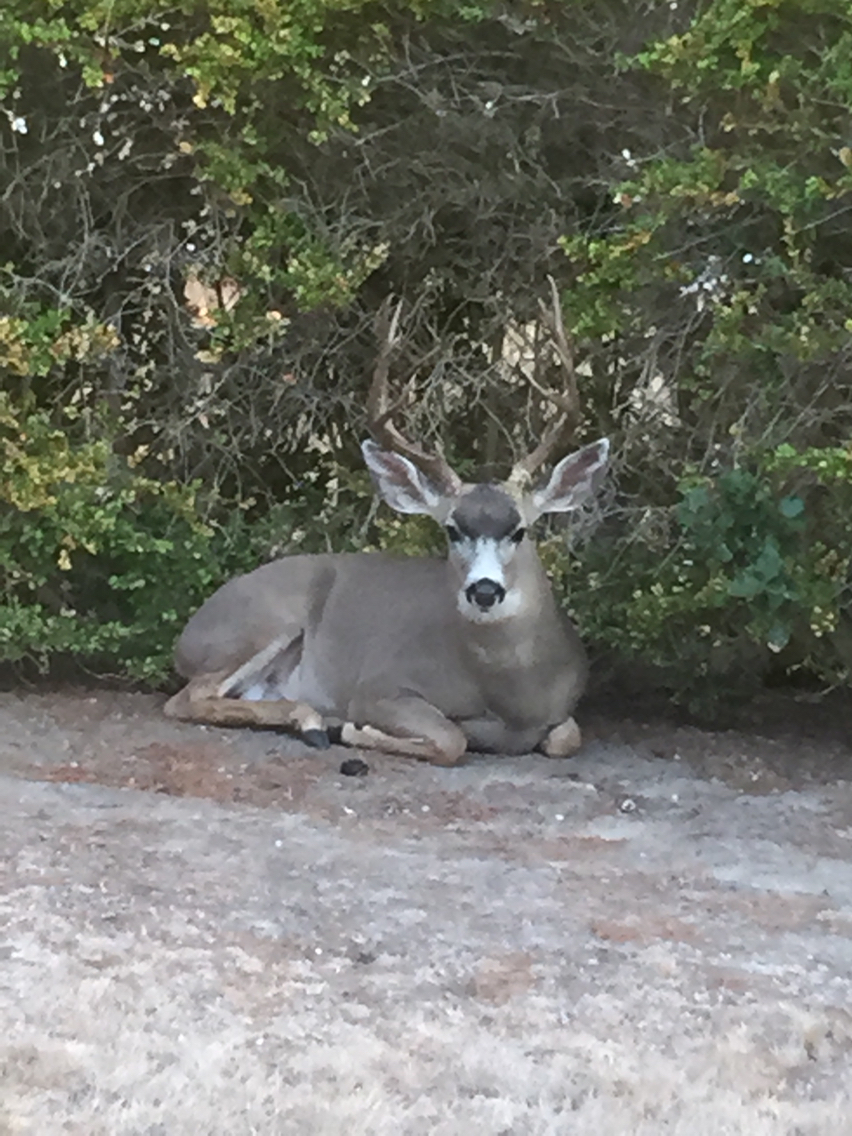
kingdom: Animalia
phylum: Chordata
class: Mammalia
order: Artiodactyla
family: Cervidae
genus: Odocoileus
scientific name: Odocoileus hemionus
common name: Mule deer
